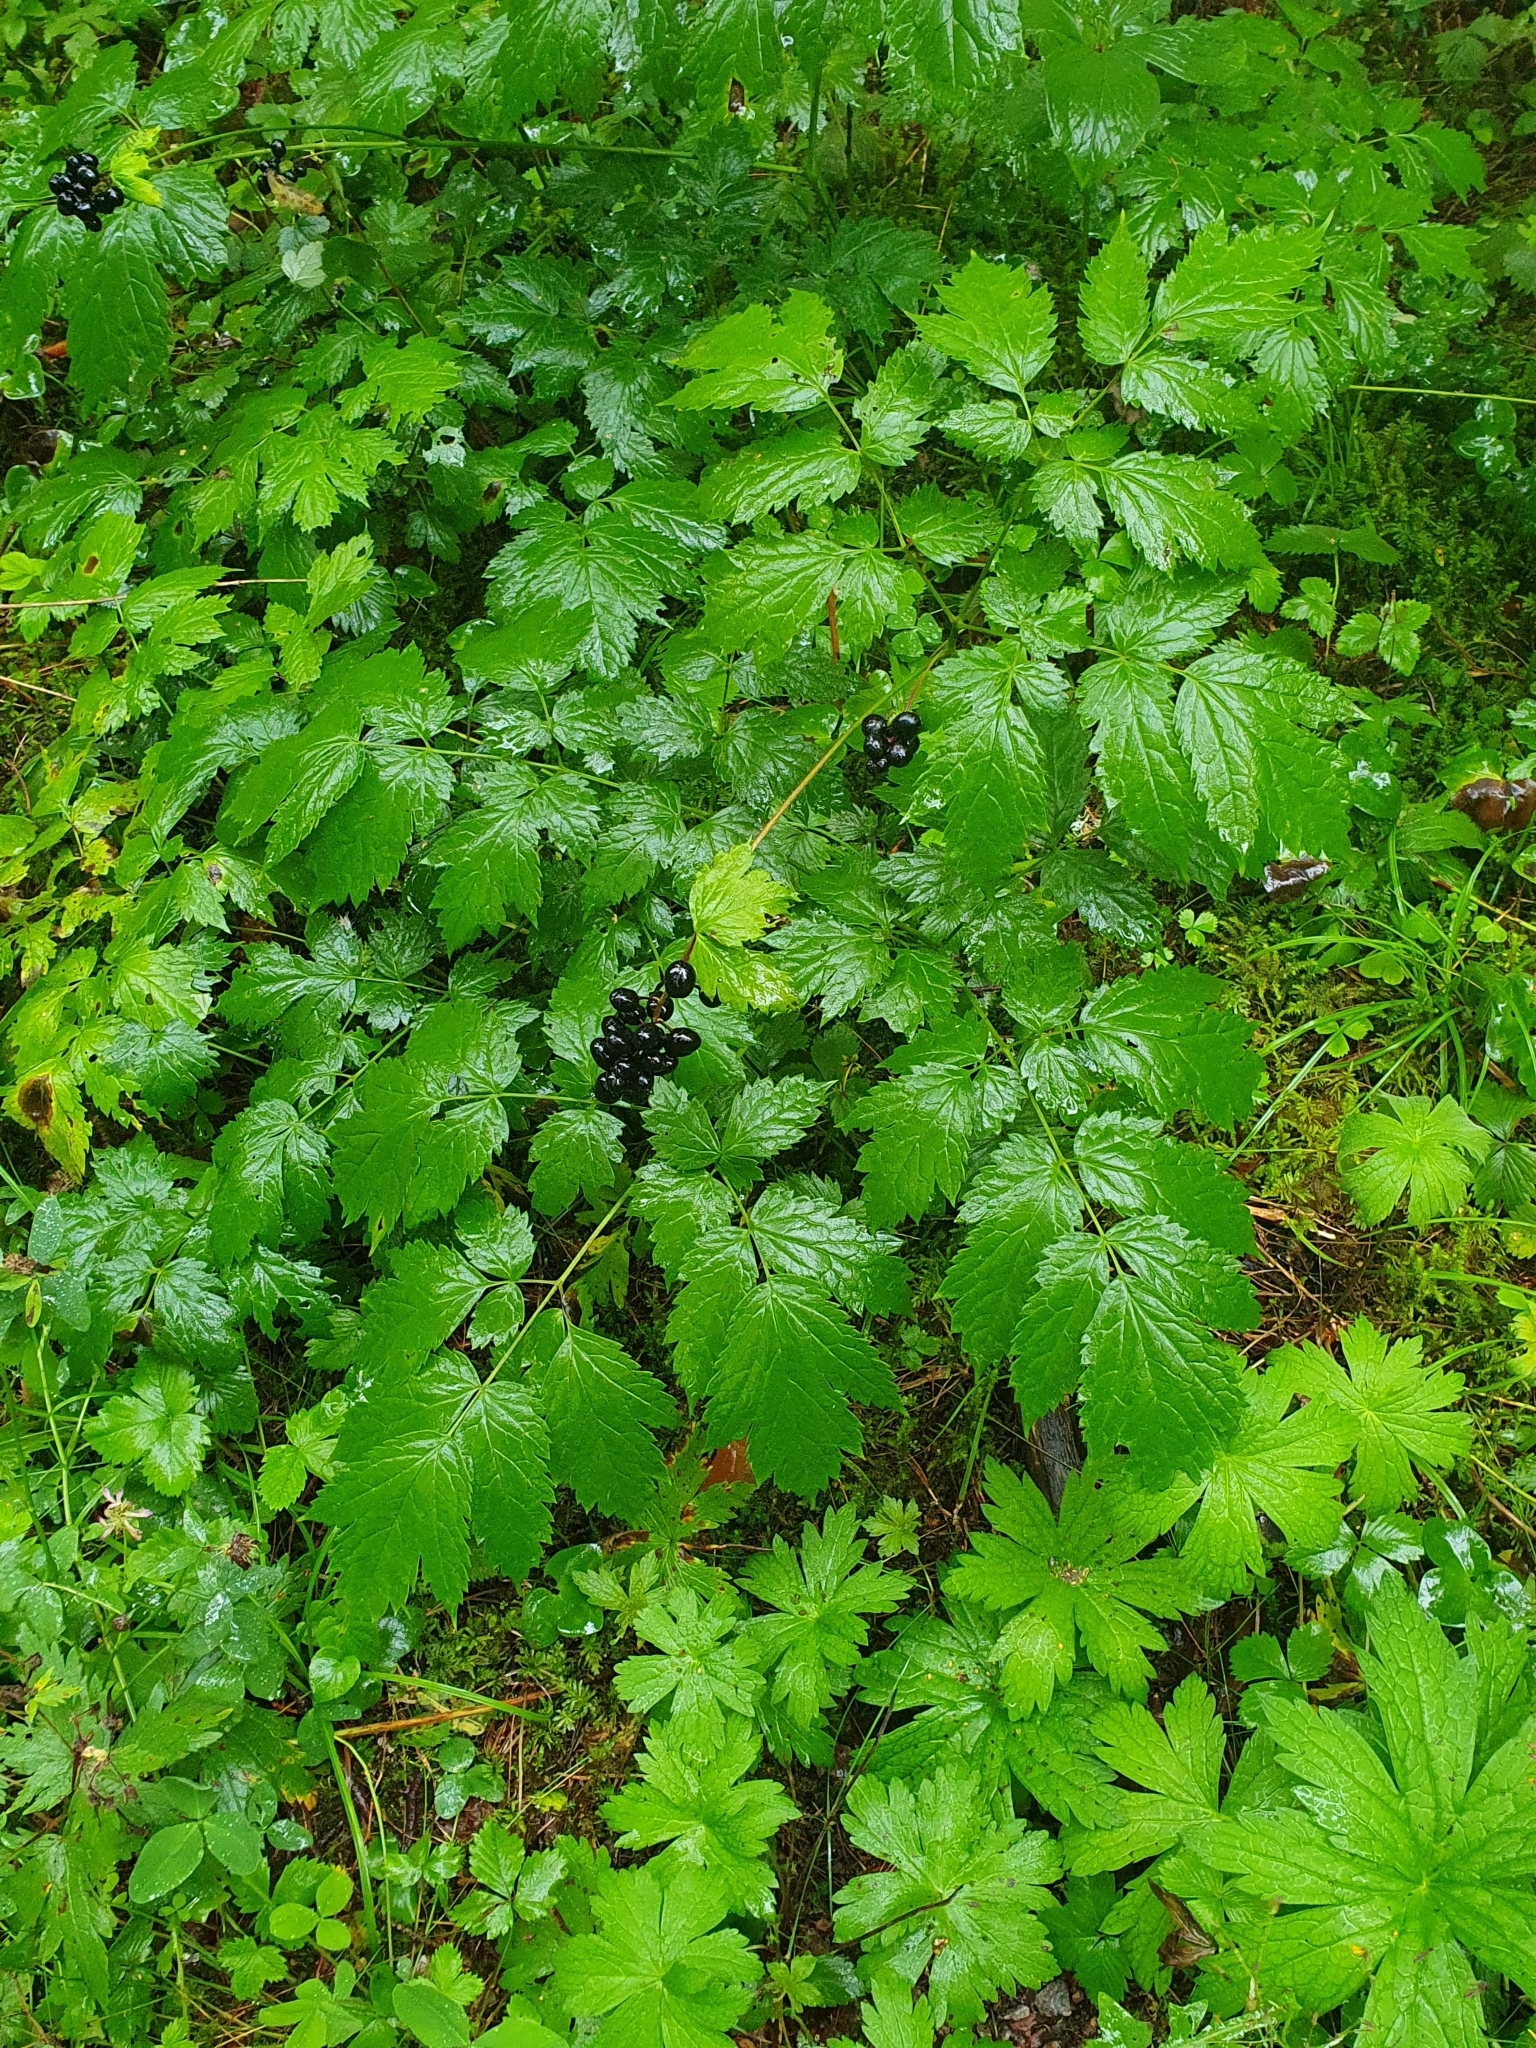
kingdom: Plantae
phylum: Tracheophyta
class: Magnoliopsida
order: Ranunculales
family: Ranunculaceae
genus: Actaea
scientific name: Actaea spicata
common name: Baneberry
